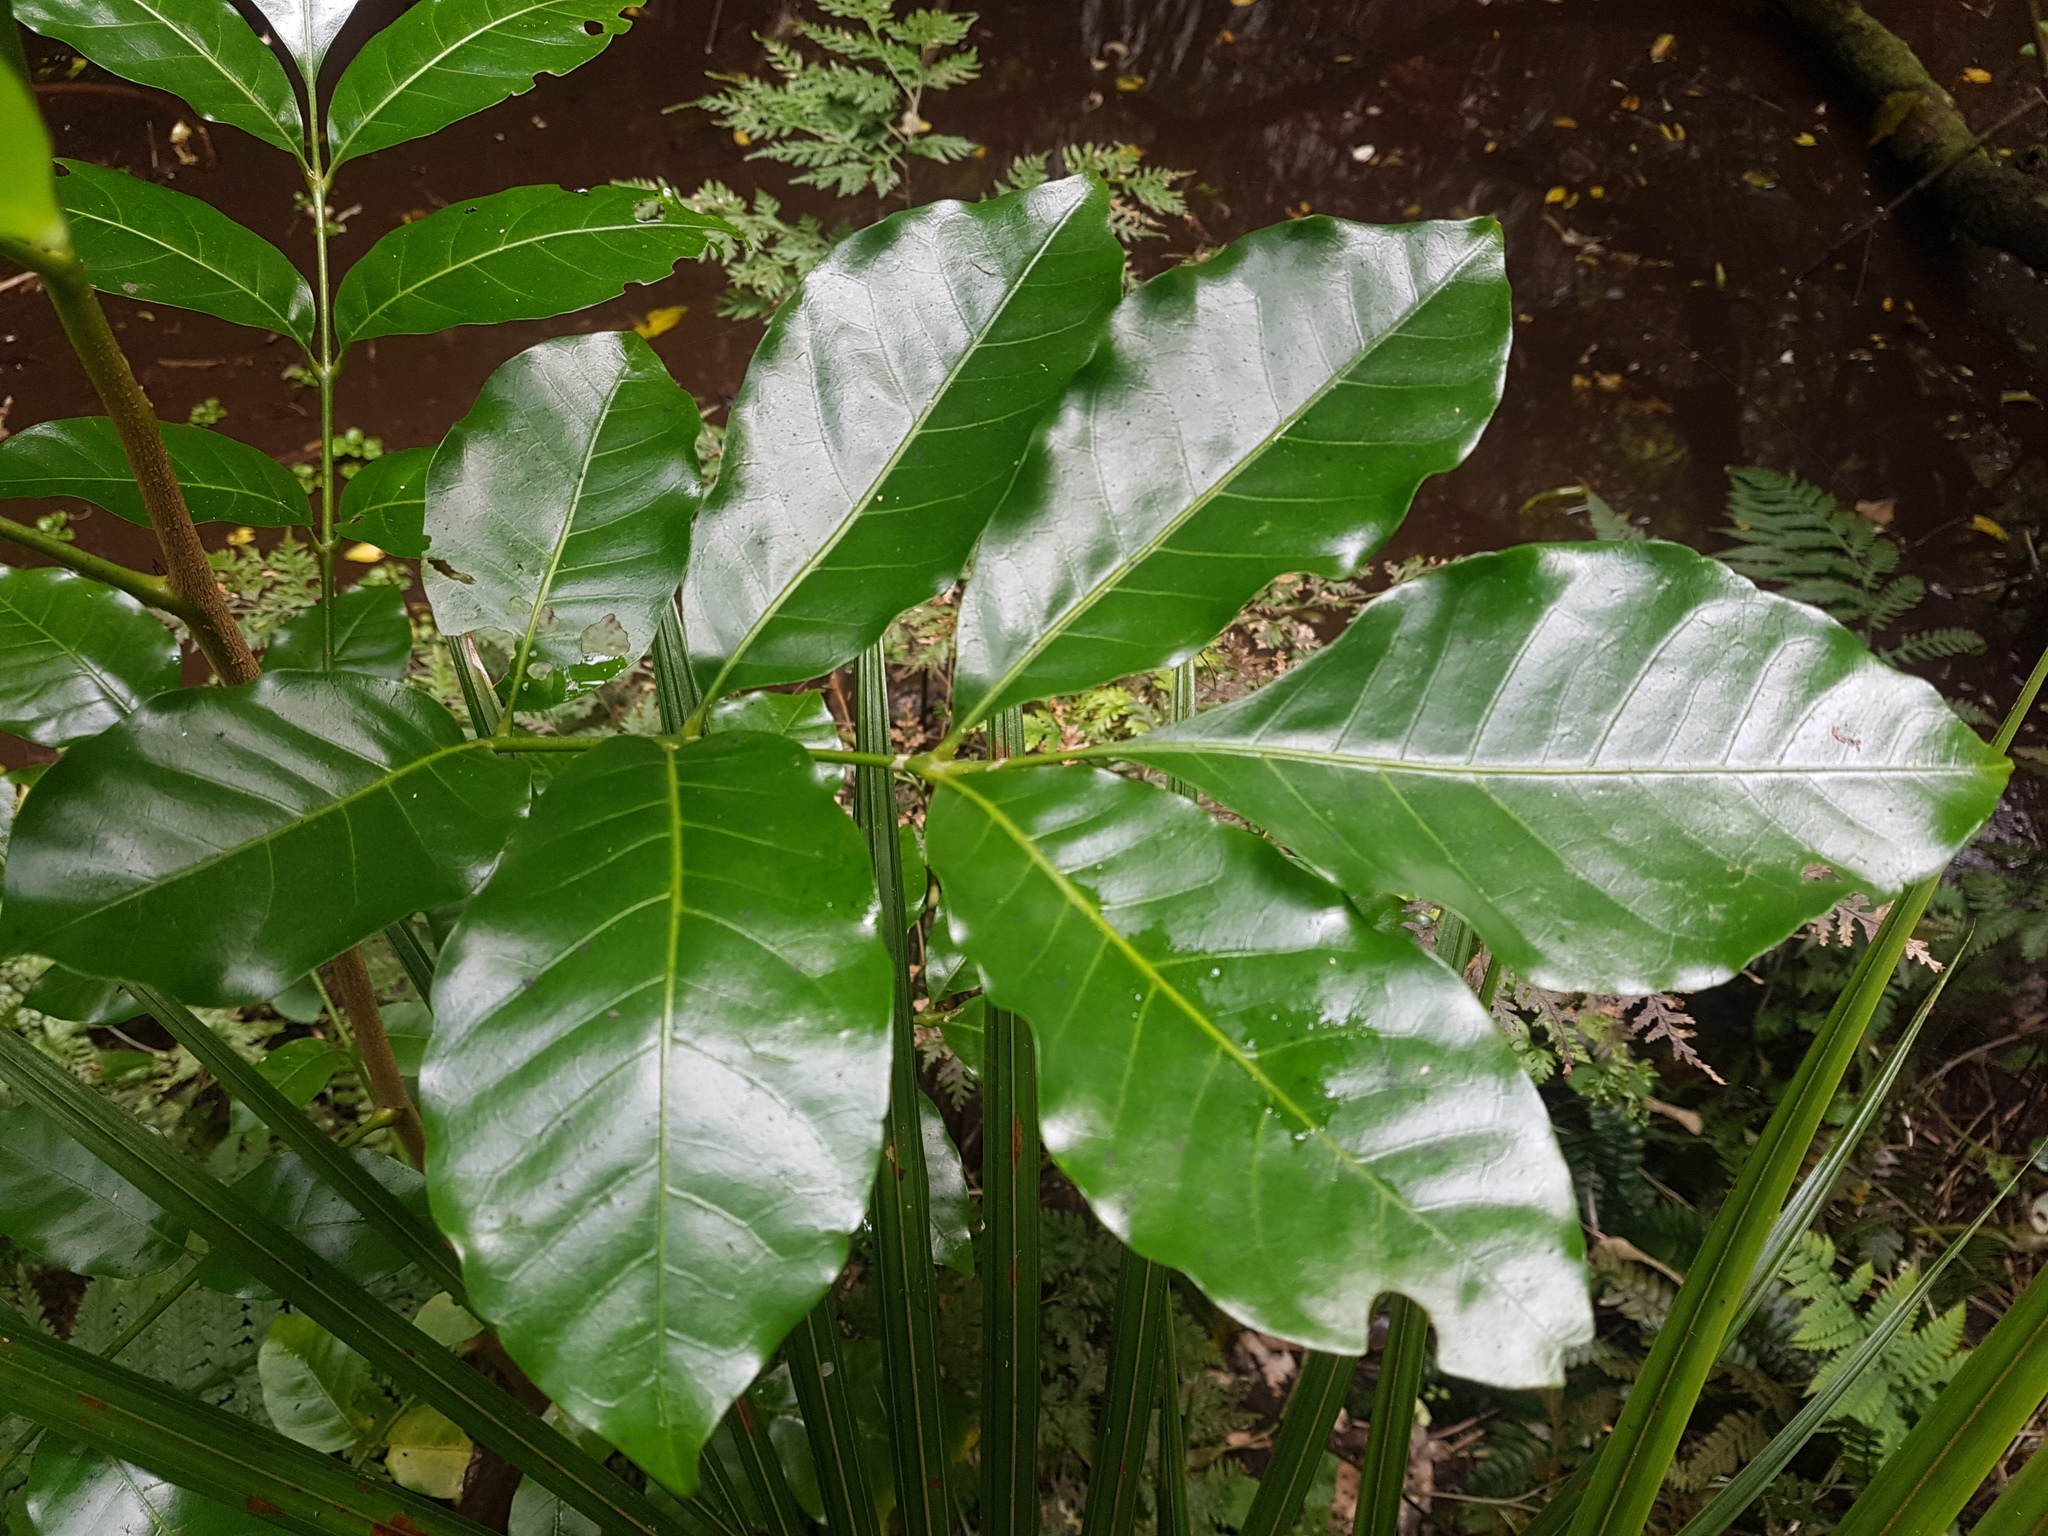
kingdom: Plantae
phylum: Tracheophyta
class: Magnoliopsida
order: Sapindales
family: Meliaceae
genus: Didymocheton
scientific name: Didymocheton spectabilis
